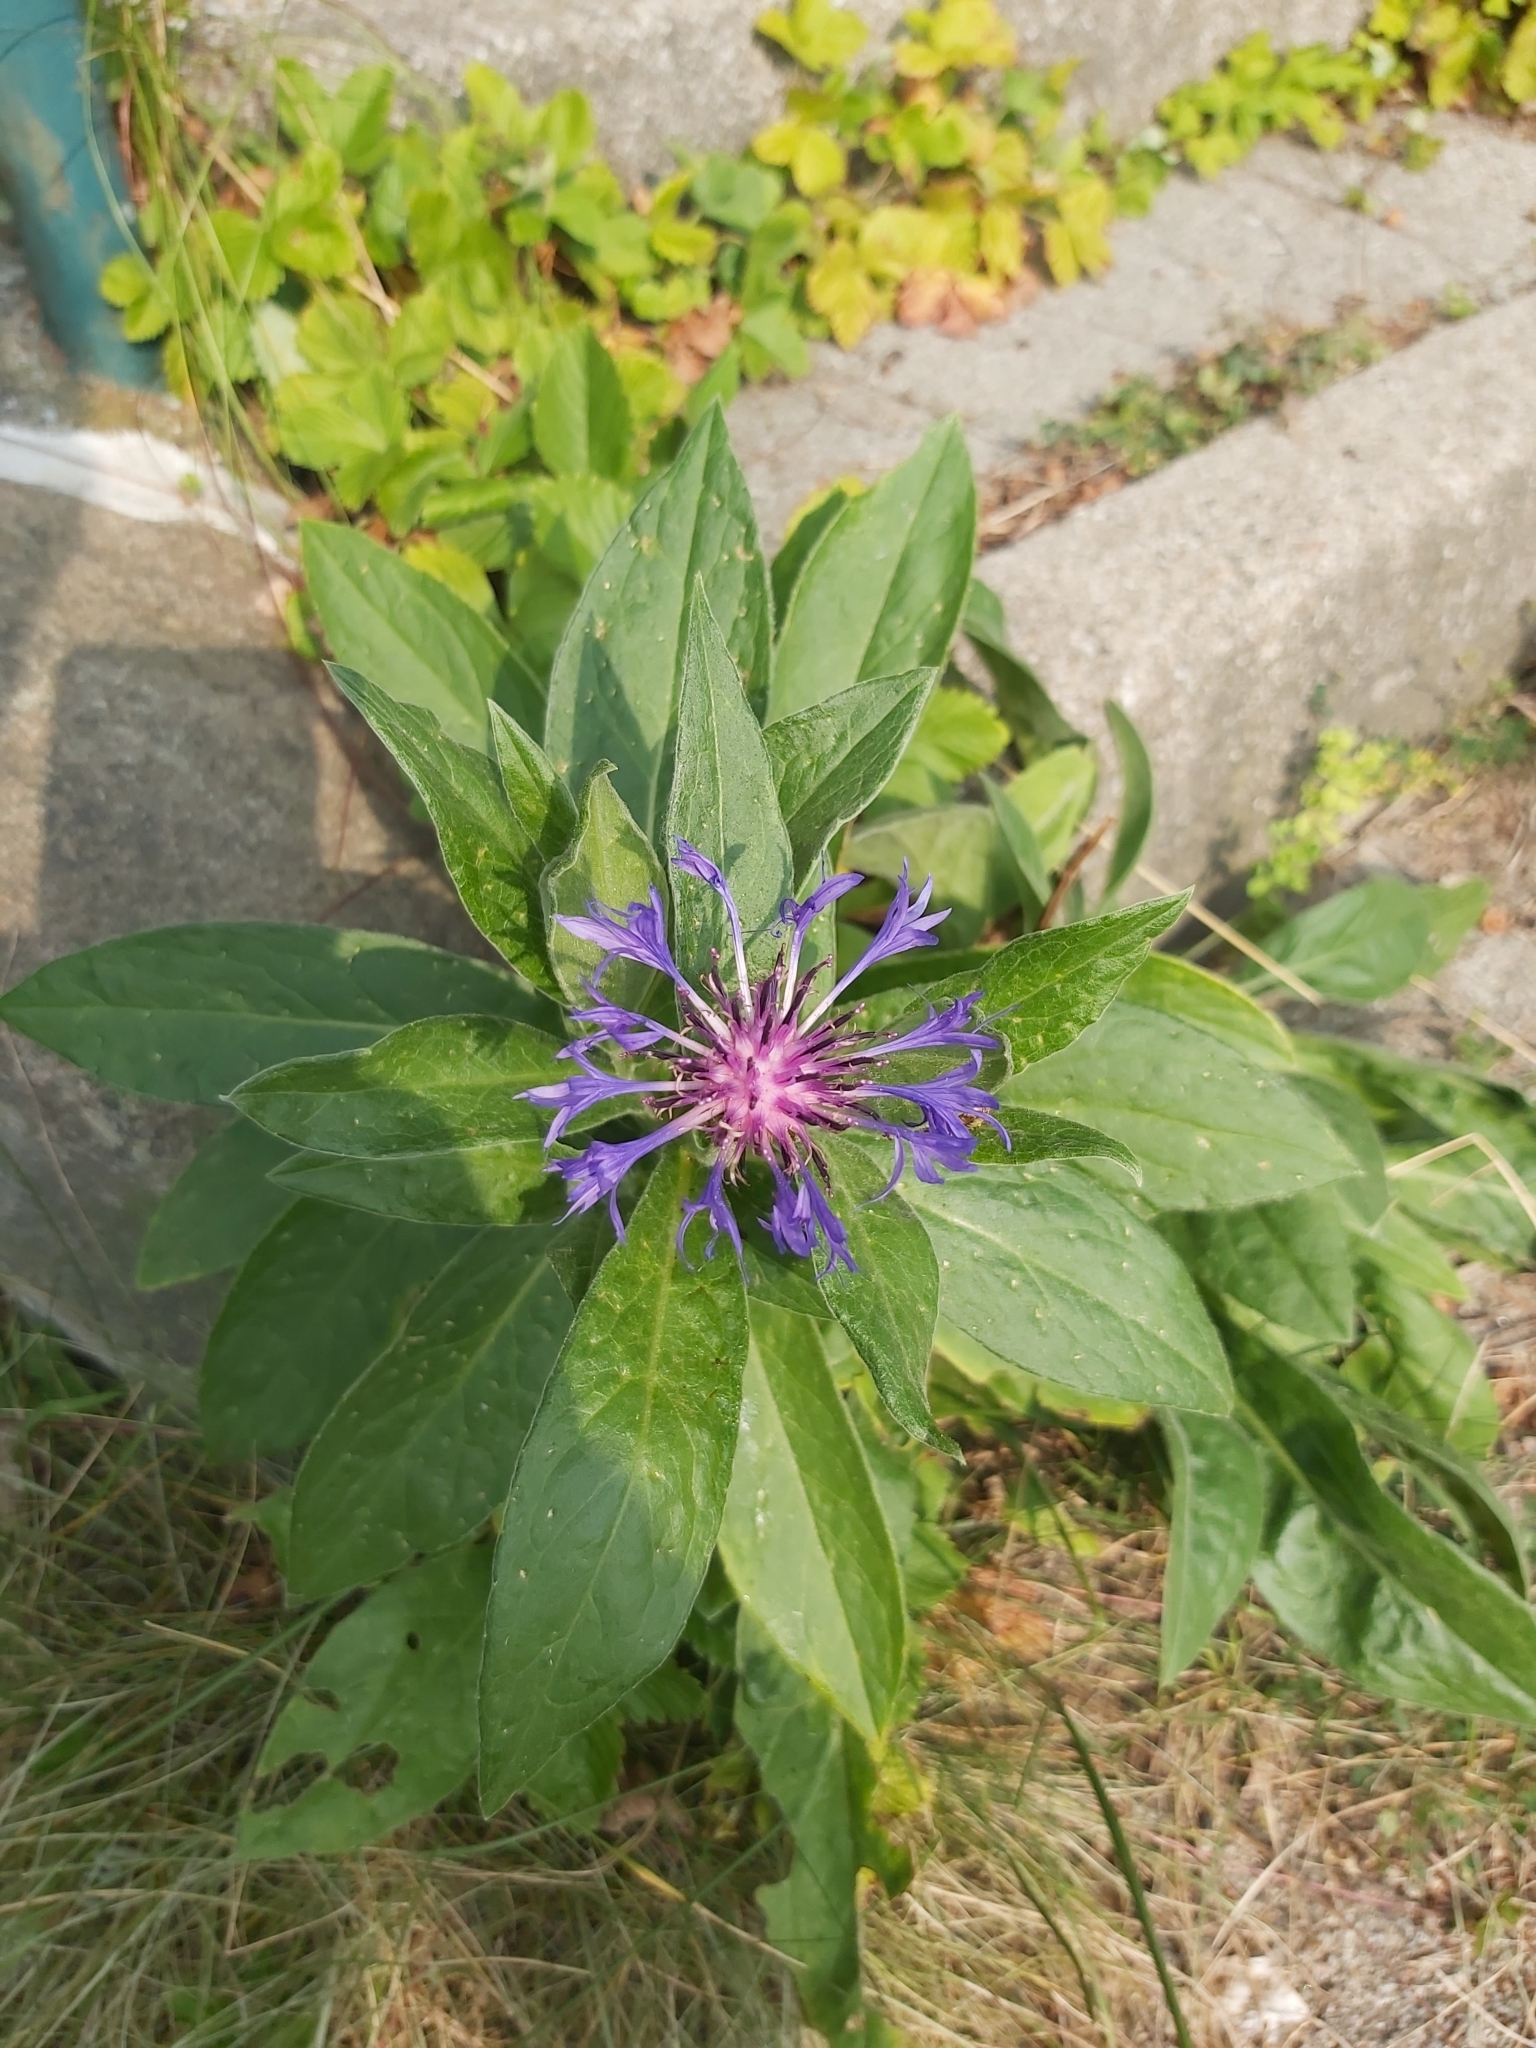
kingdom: Plantae
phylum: Tracheophyta
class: Magnoliopsida
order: Asterales
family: Asteraceae
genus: Centaurea
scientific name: Centaurea montana
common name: Perennial cornflower
